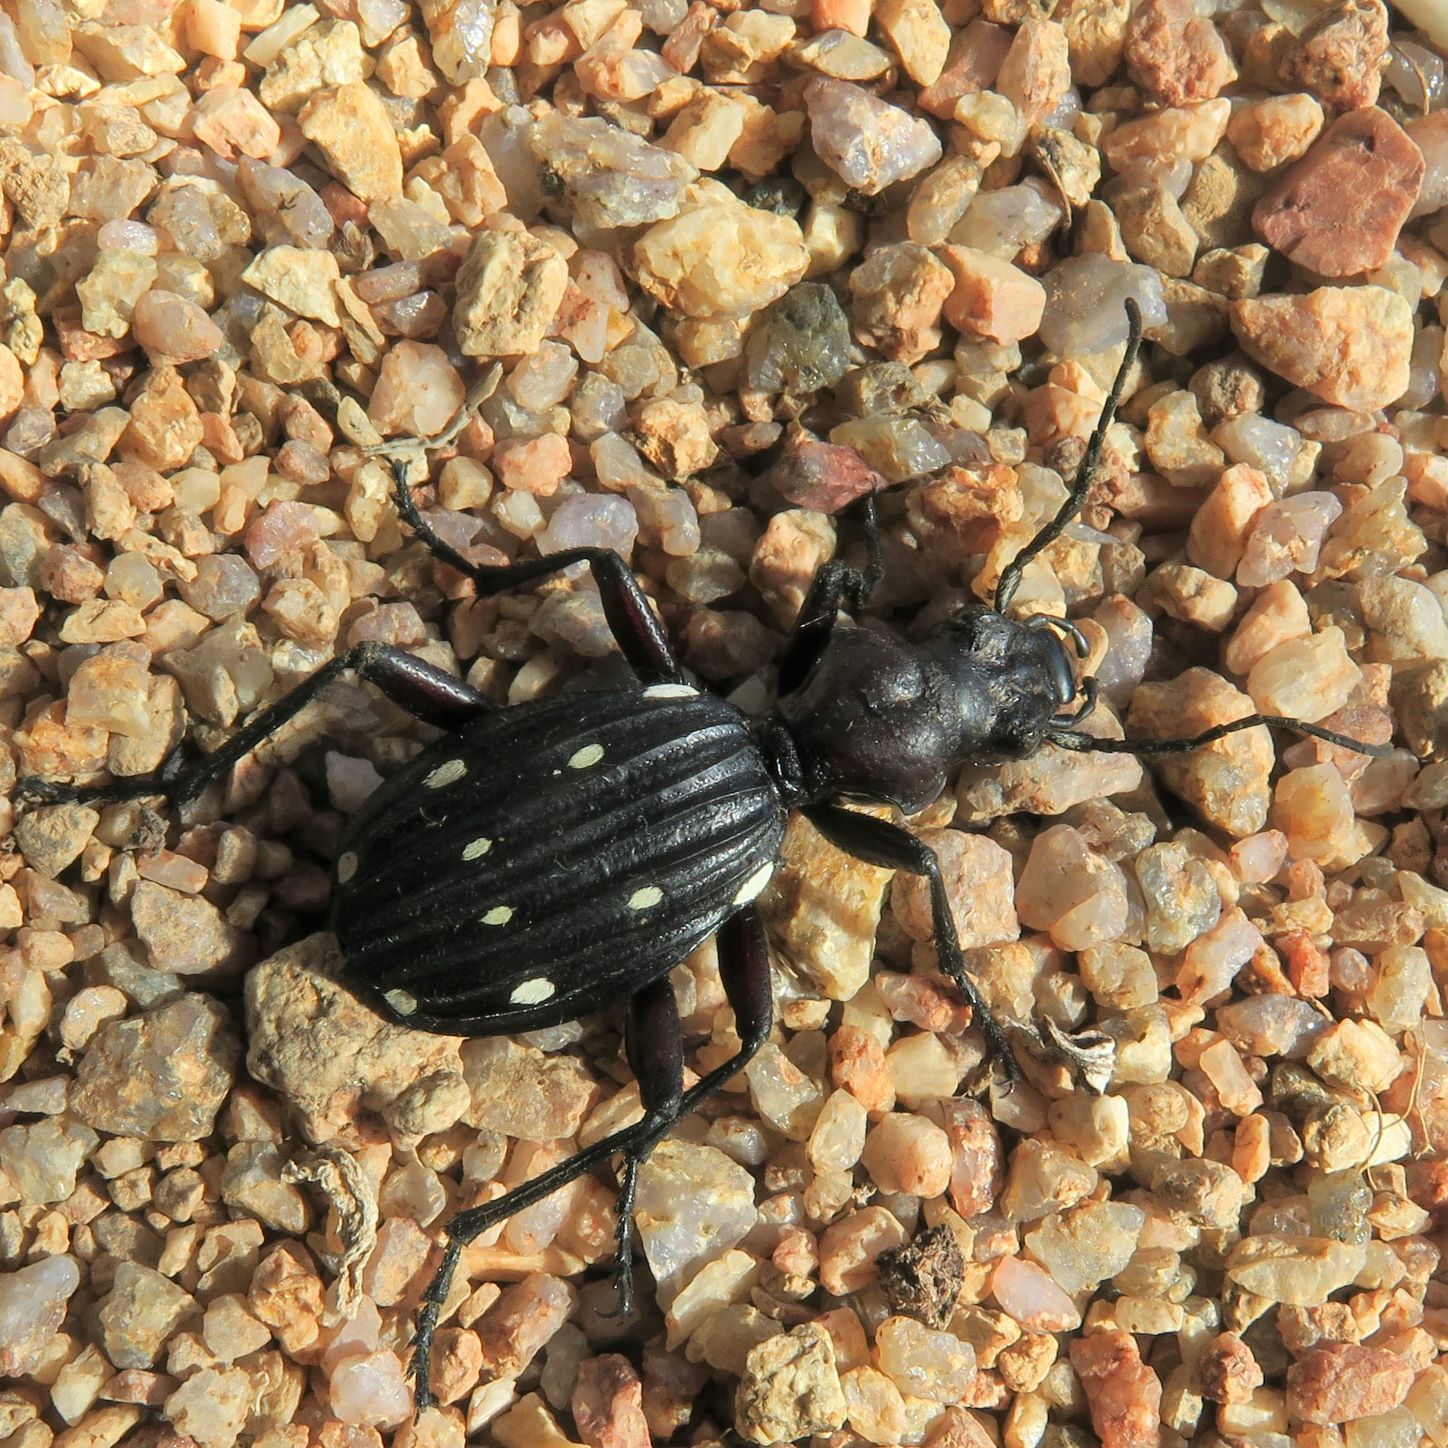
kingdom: Animalia
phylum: Arthropoda
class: Insecta
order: Coleoptera
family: Carabidae
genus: Anthia
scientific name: Anthia decemguttata
